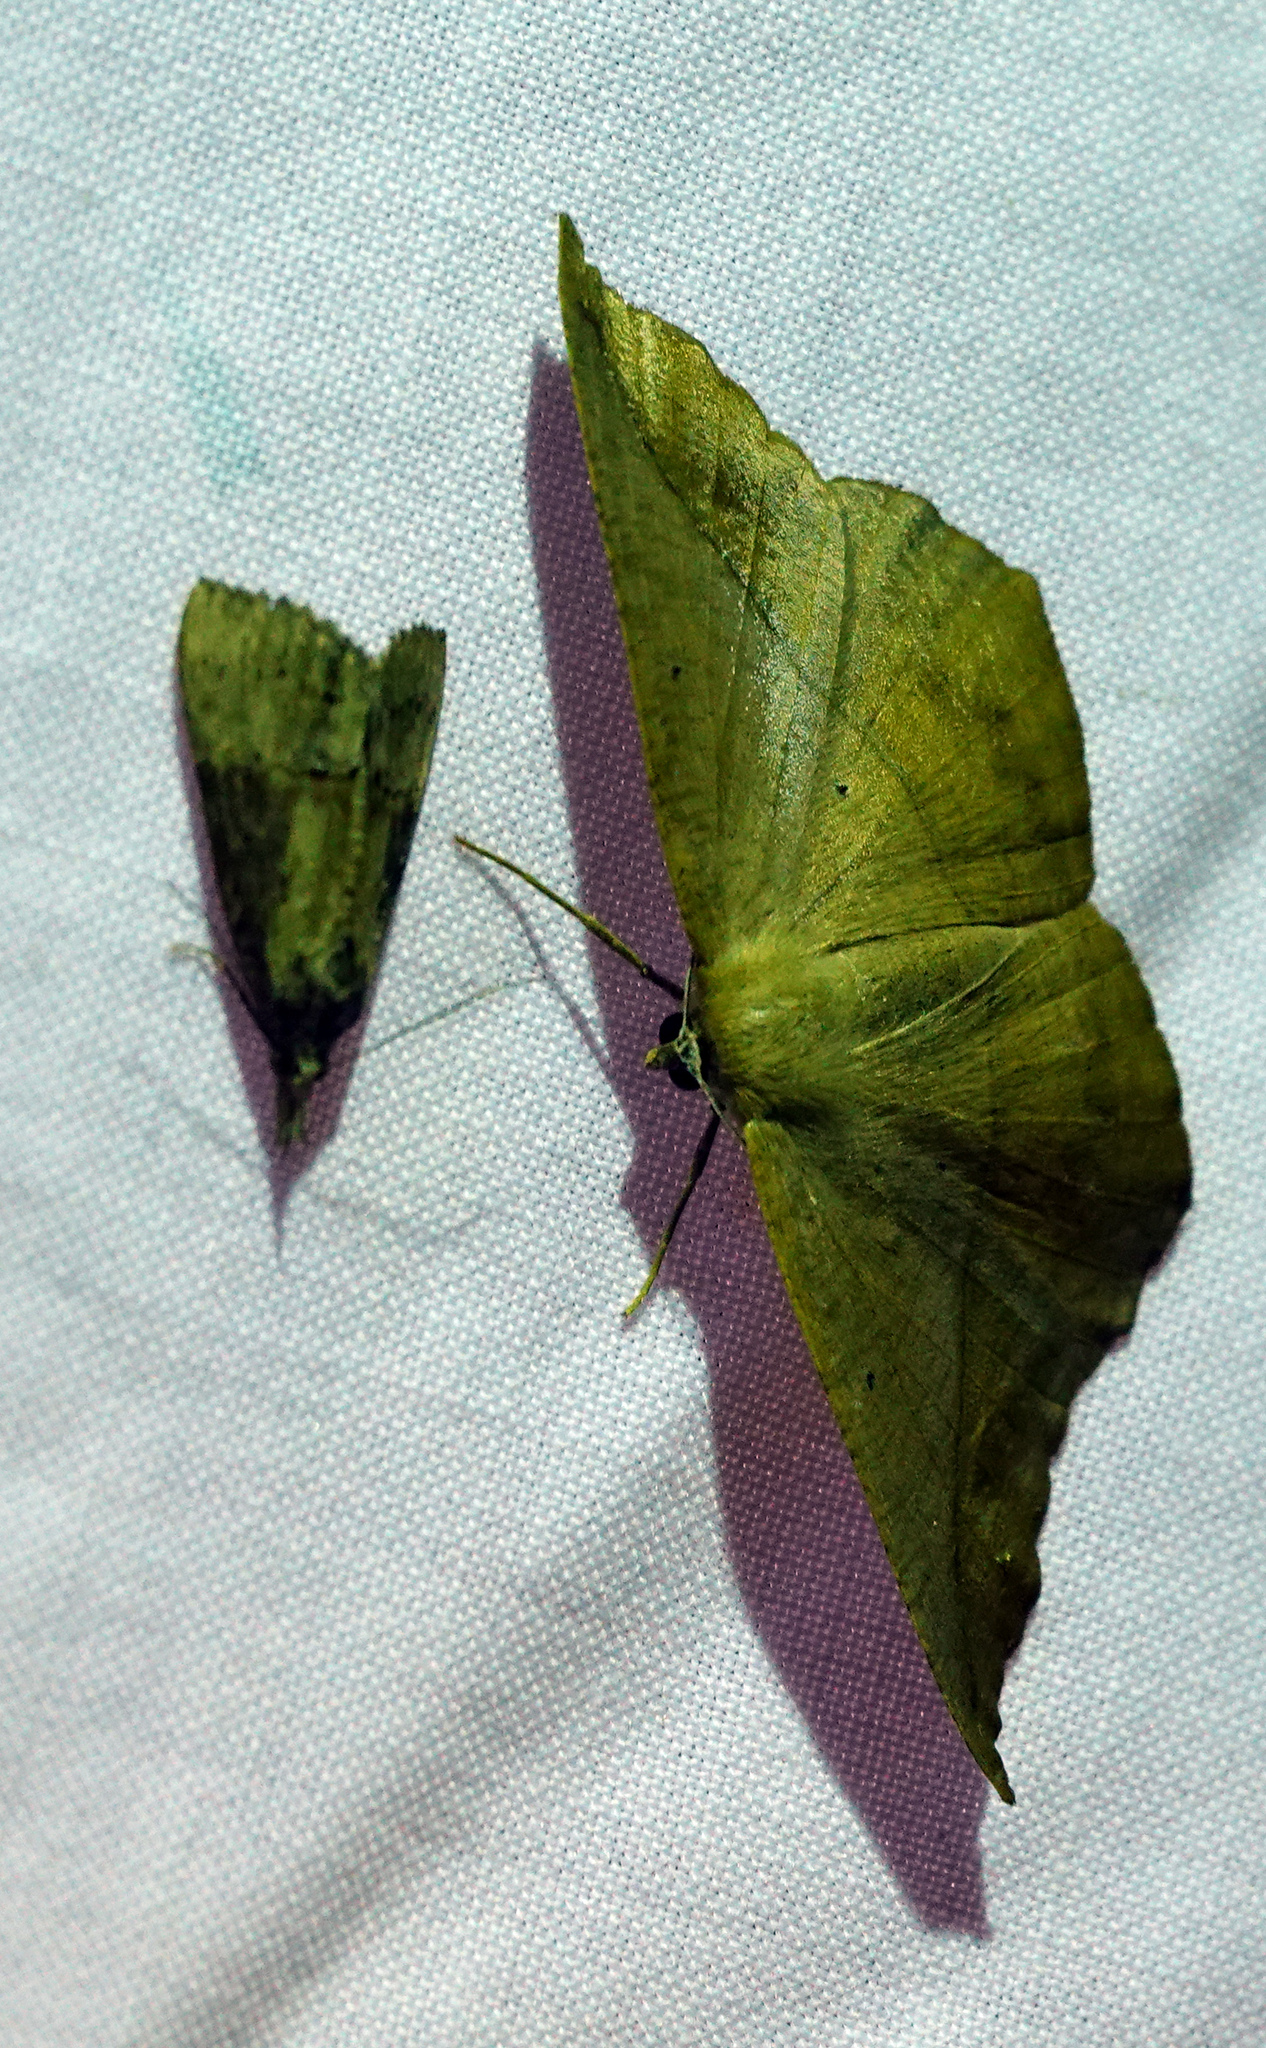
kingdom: Animalia
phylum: Arthropoda
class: Insecta
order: Lepidoptera
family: Geometridae
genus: Prochoerodes
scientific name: Prochoerodes lineola
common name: Large maple spanworm
